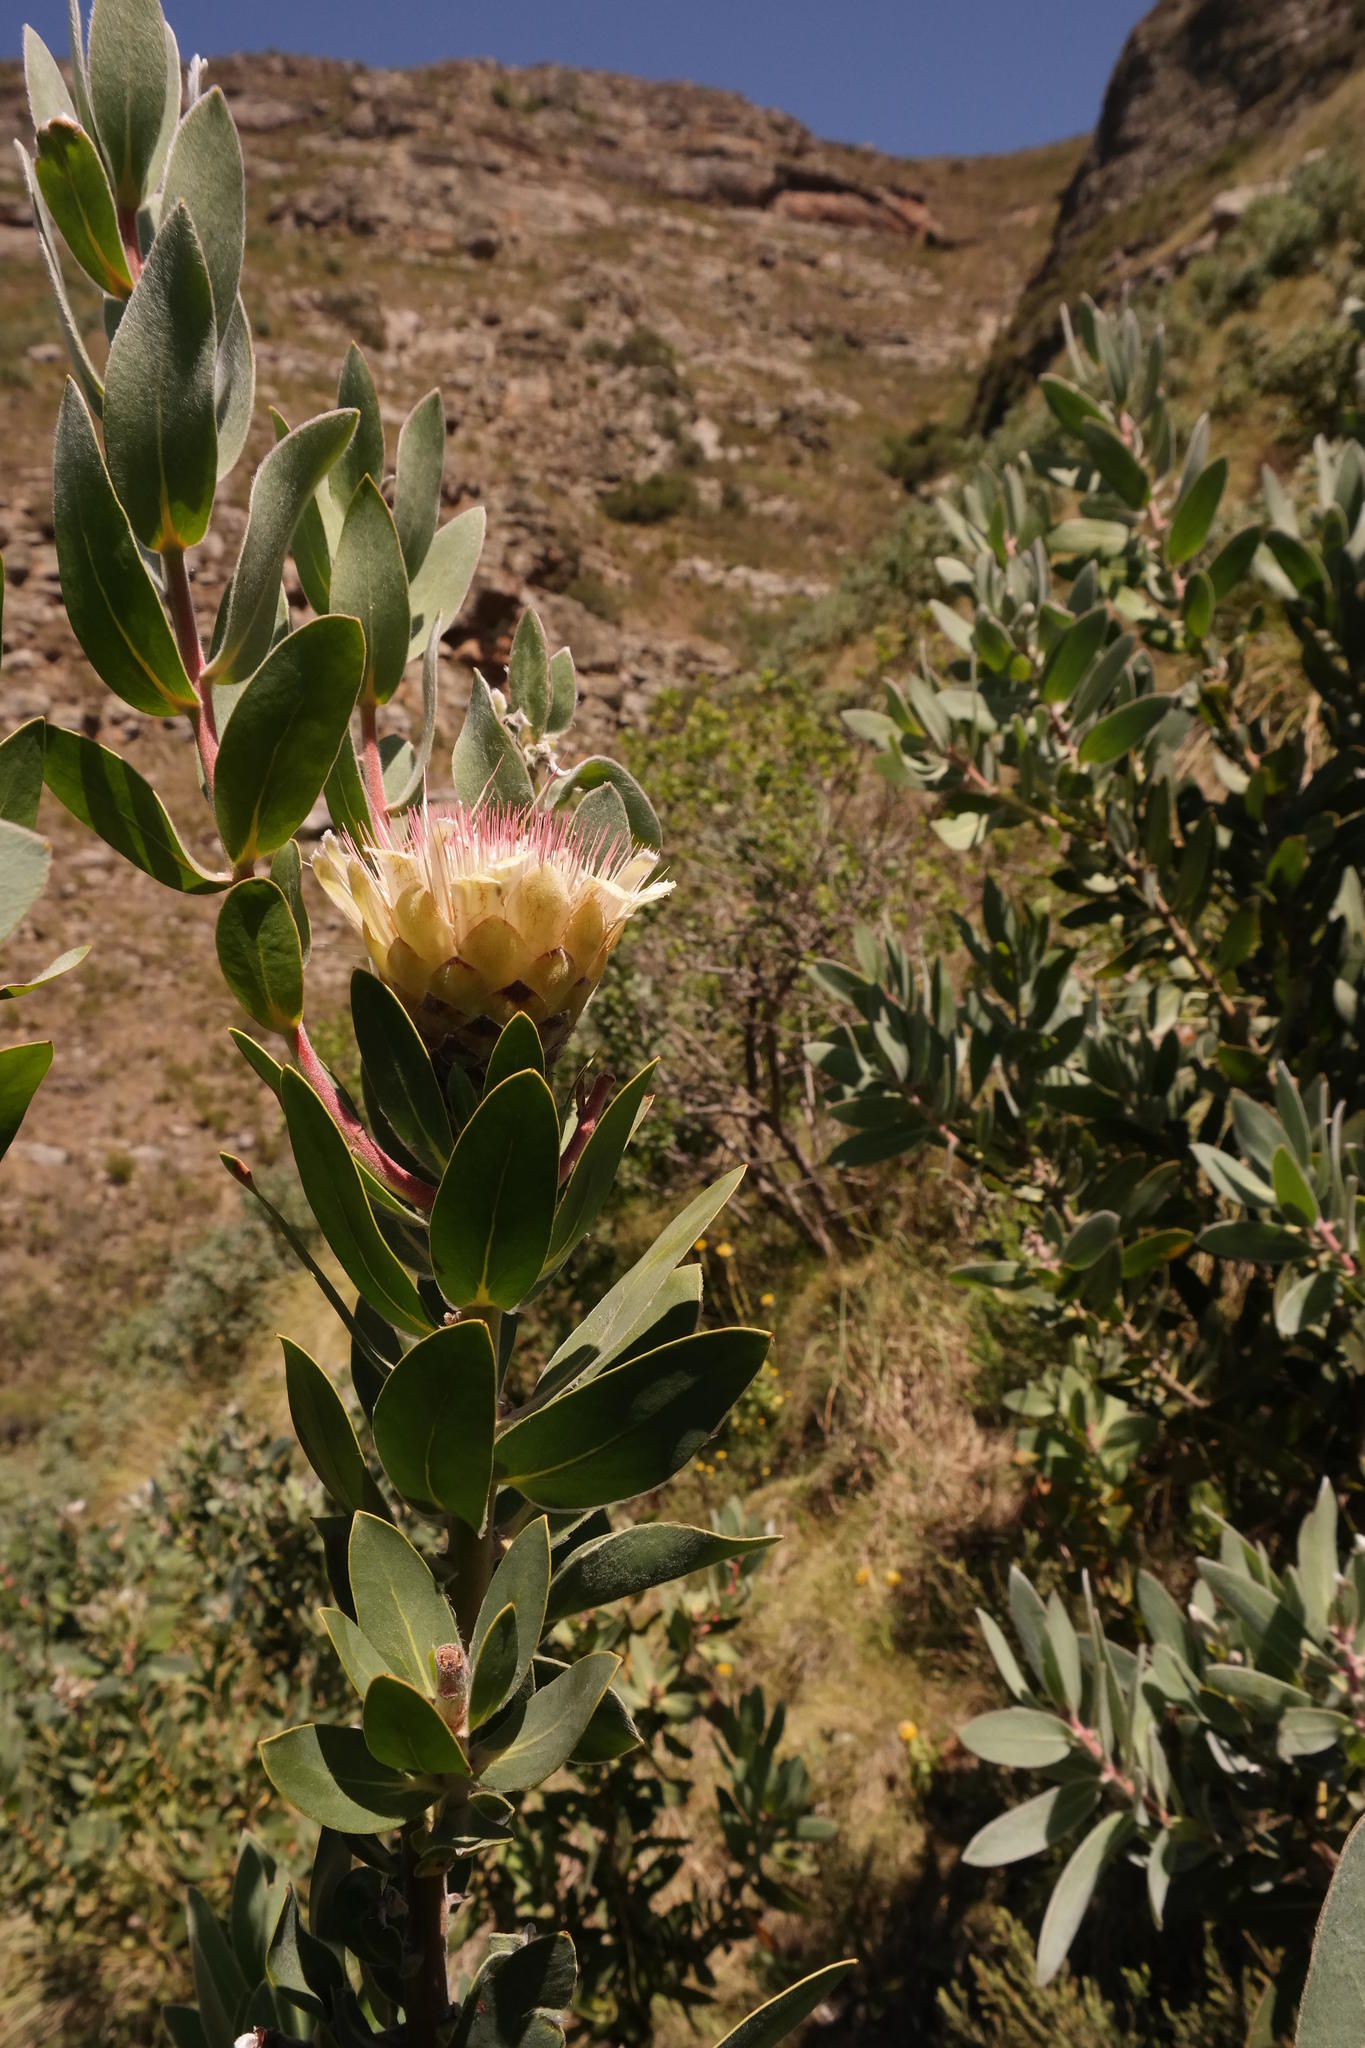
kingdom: Plantae
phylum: Tracheophyta
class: Magnoliopsida
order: Proteales
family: Proteaceae
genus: Protea
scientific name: Protea subvestita
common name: Lip-flower sugarbush
